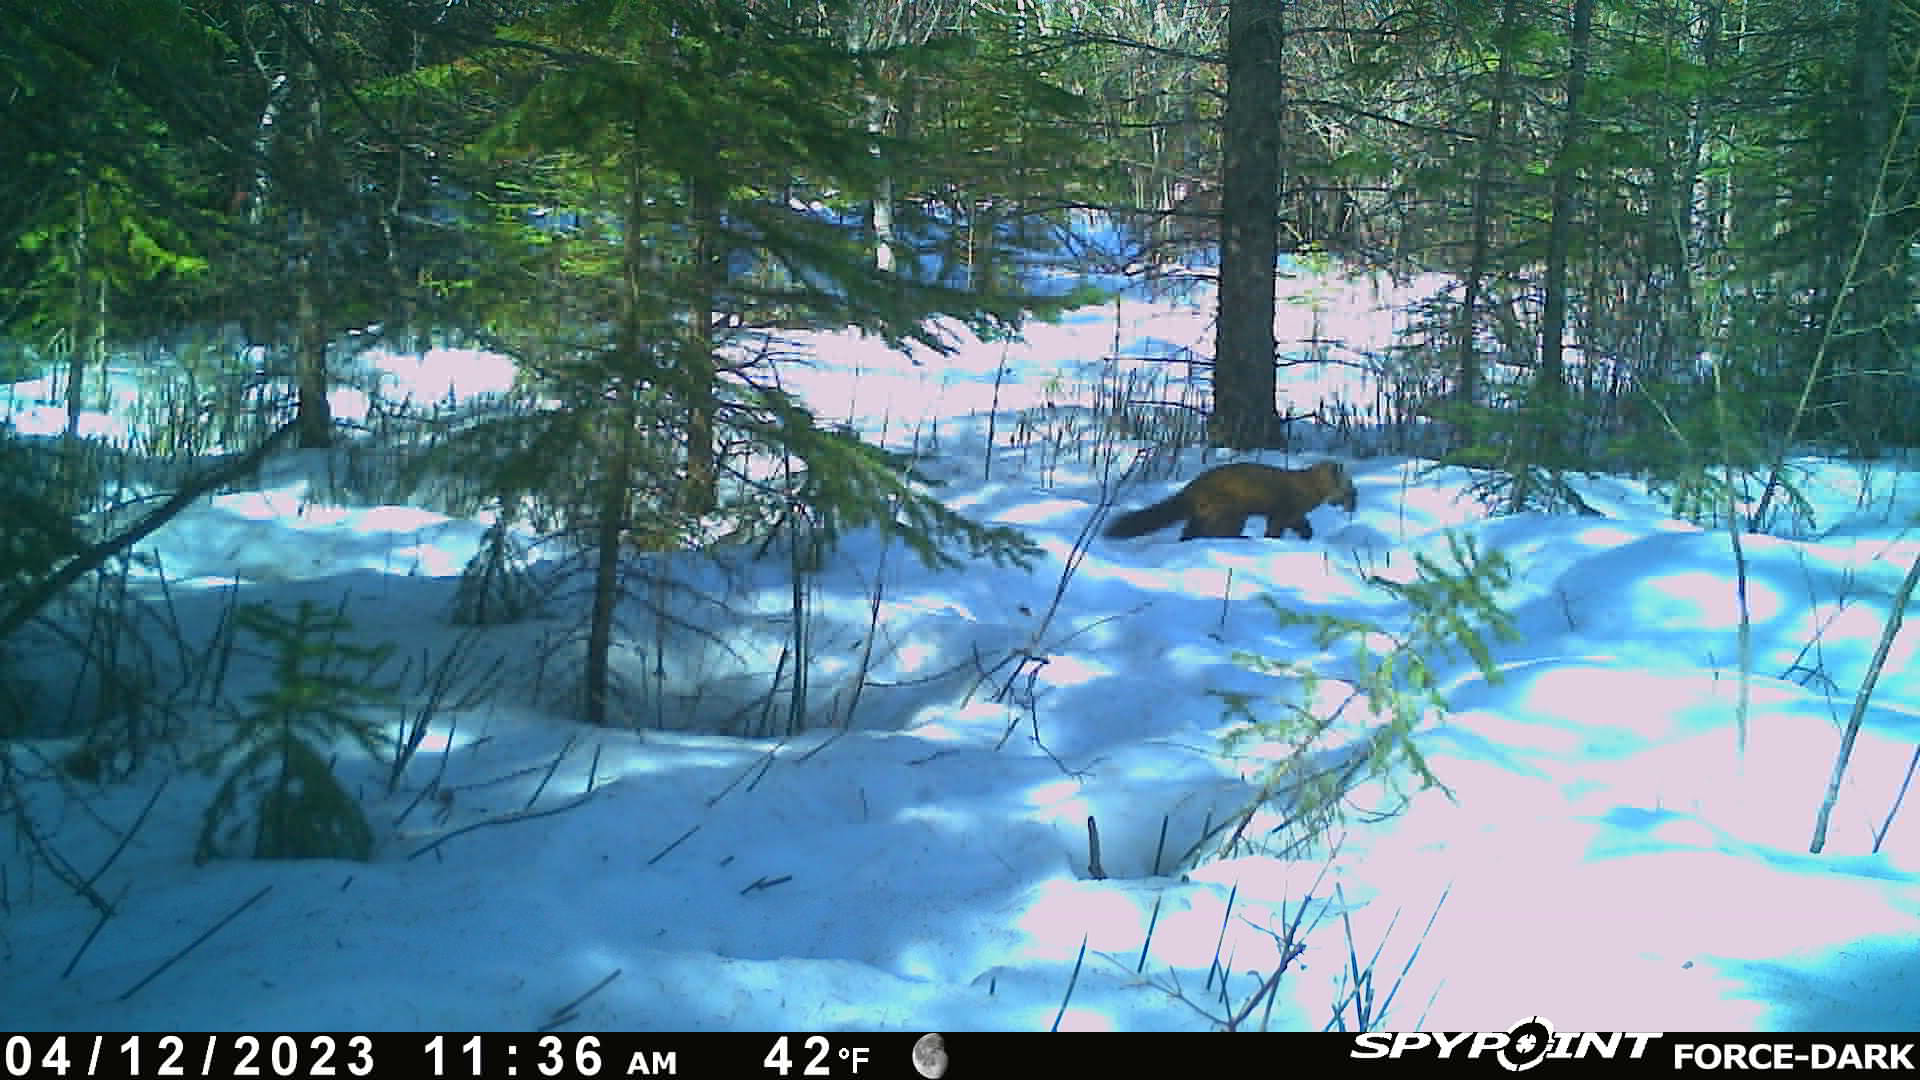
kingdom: Animalia
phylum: Chordata
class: Mammalia
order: Carnivora
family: Mustelidae
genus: Martes
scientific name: Martes americana
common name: American marten
